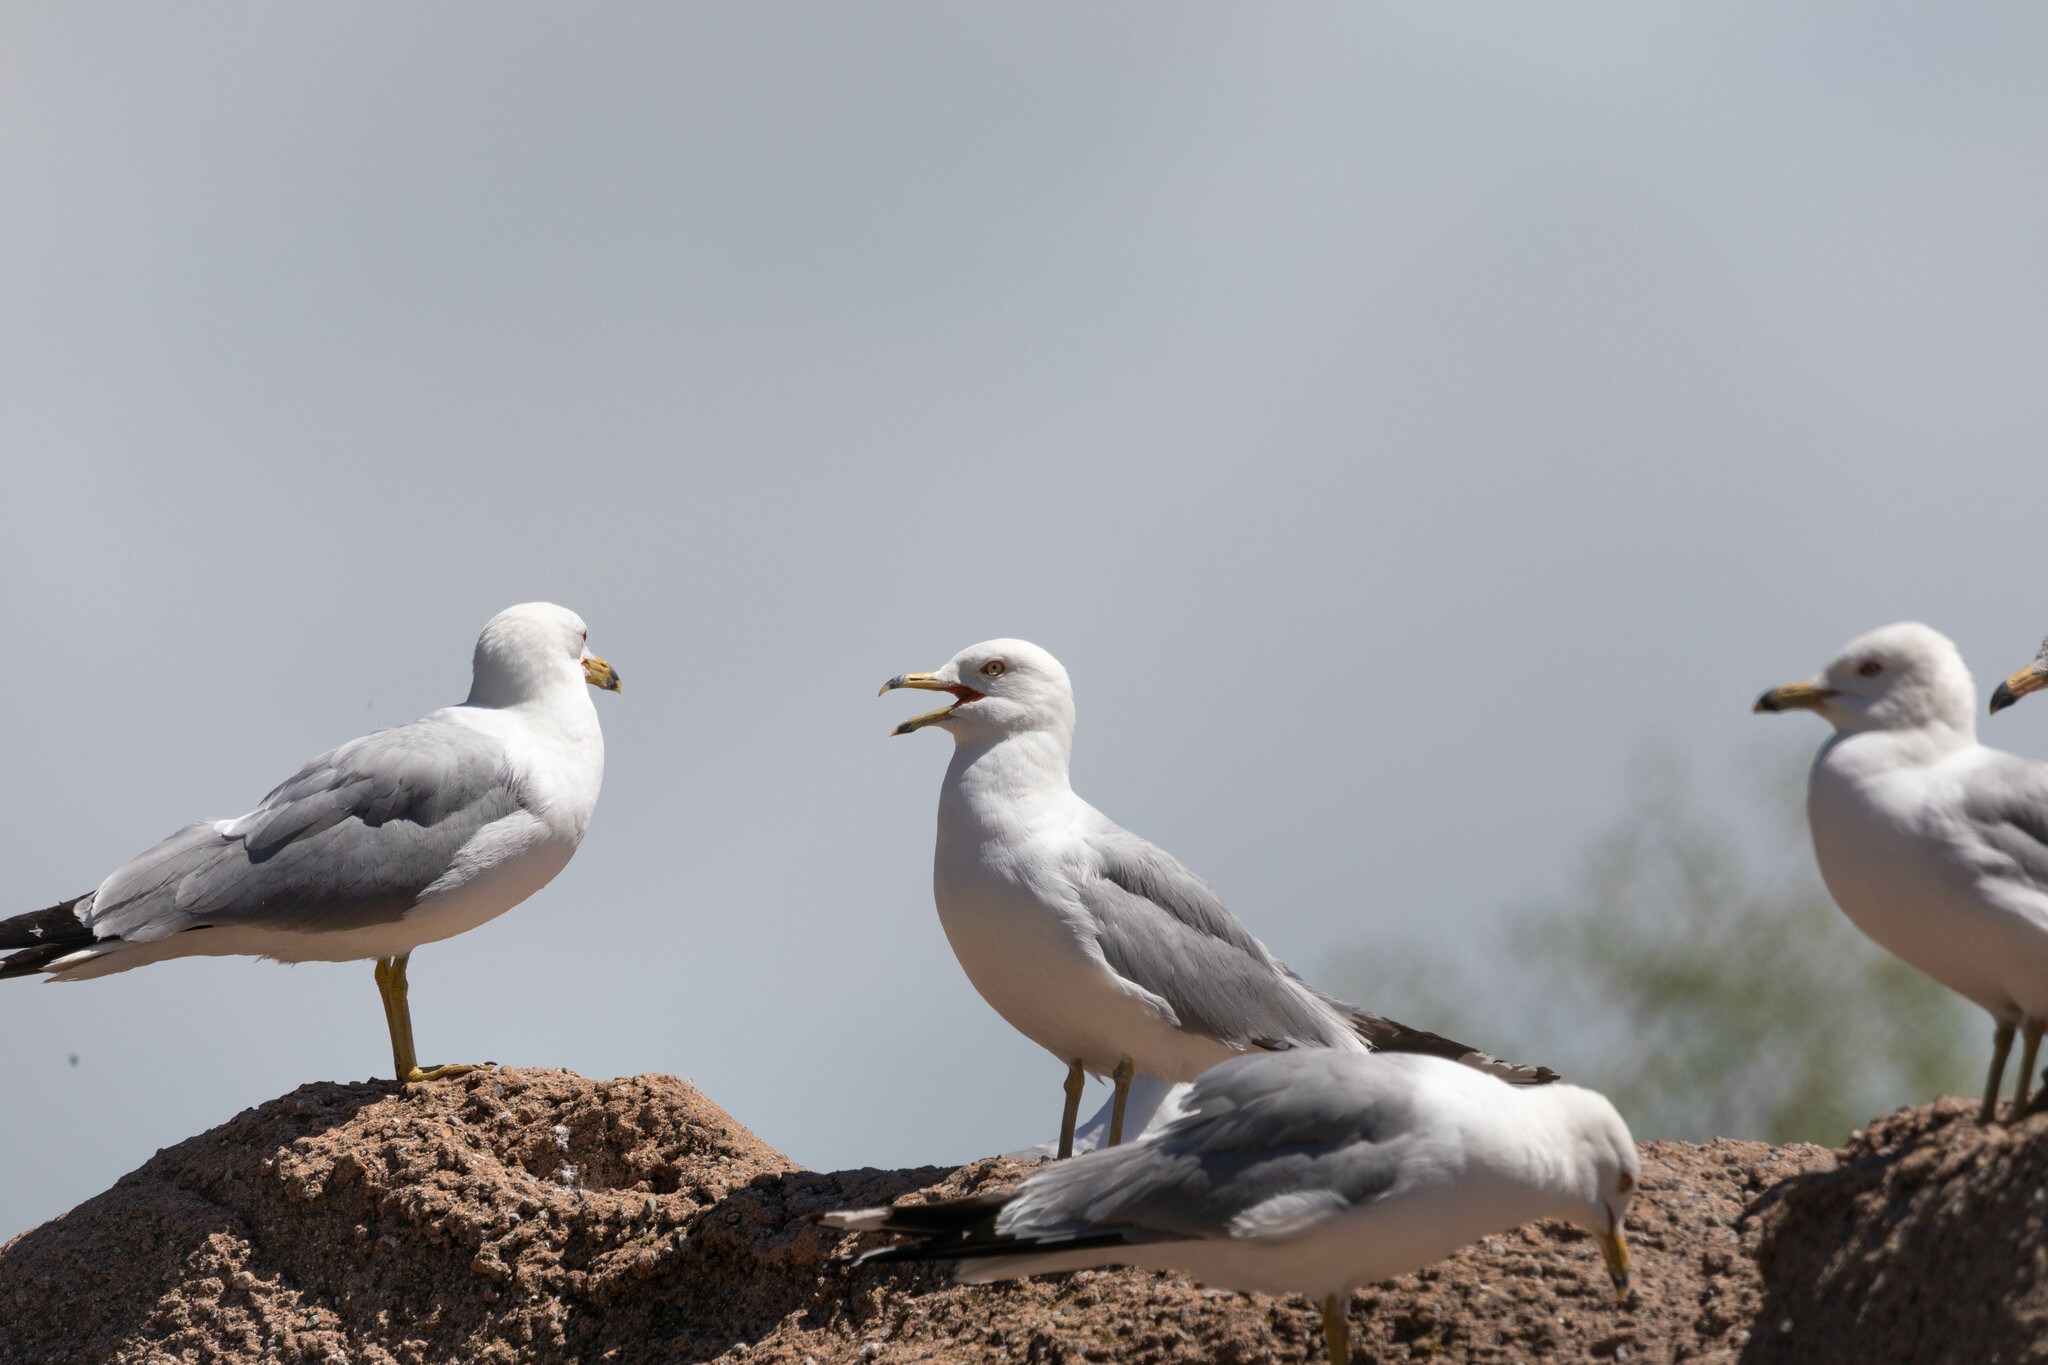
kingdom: Animalia
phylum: Chordata
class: Aves
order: Charadriiformes
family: Laridae
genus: Larus
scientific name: Larus delawarensis
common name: Ring-billed gull
